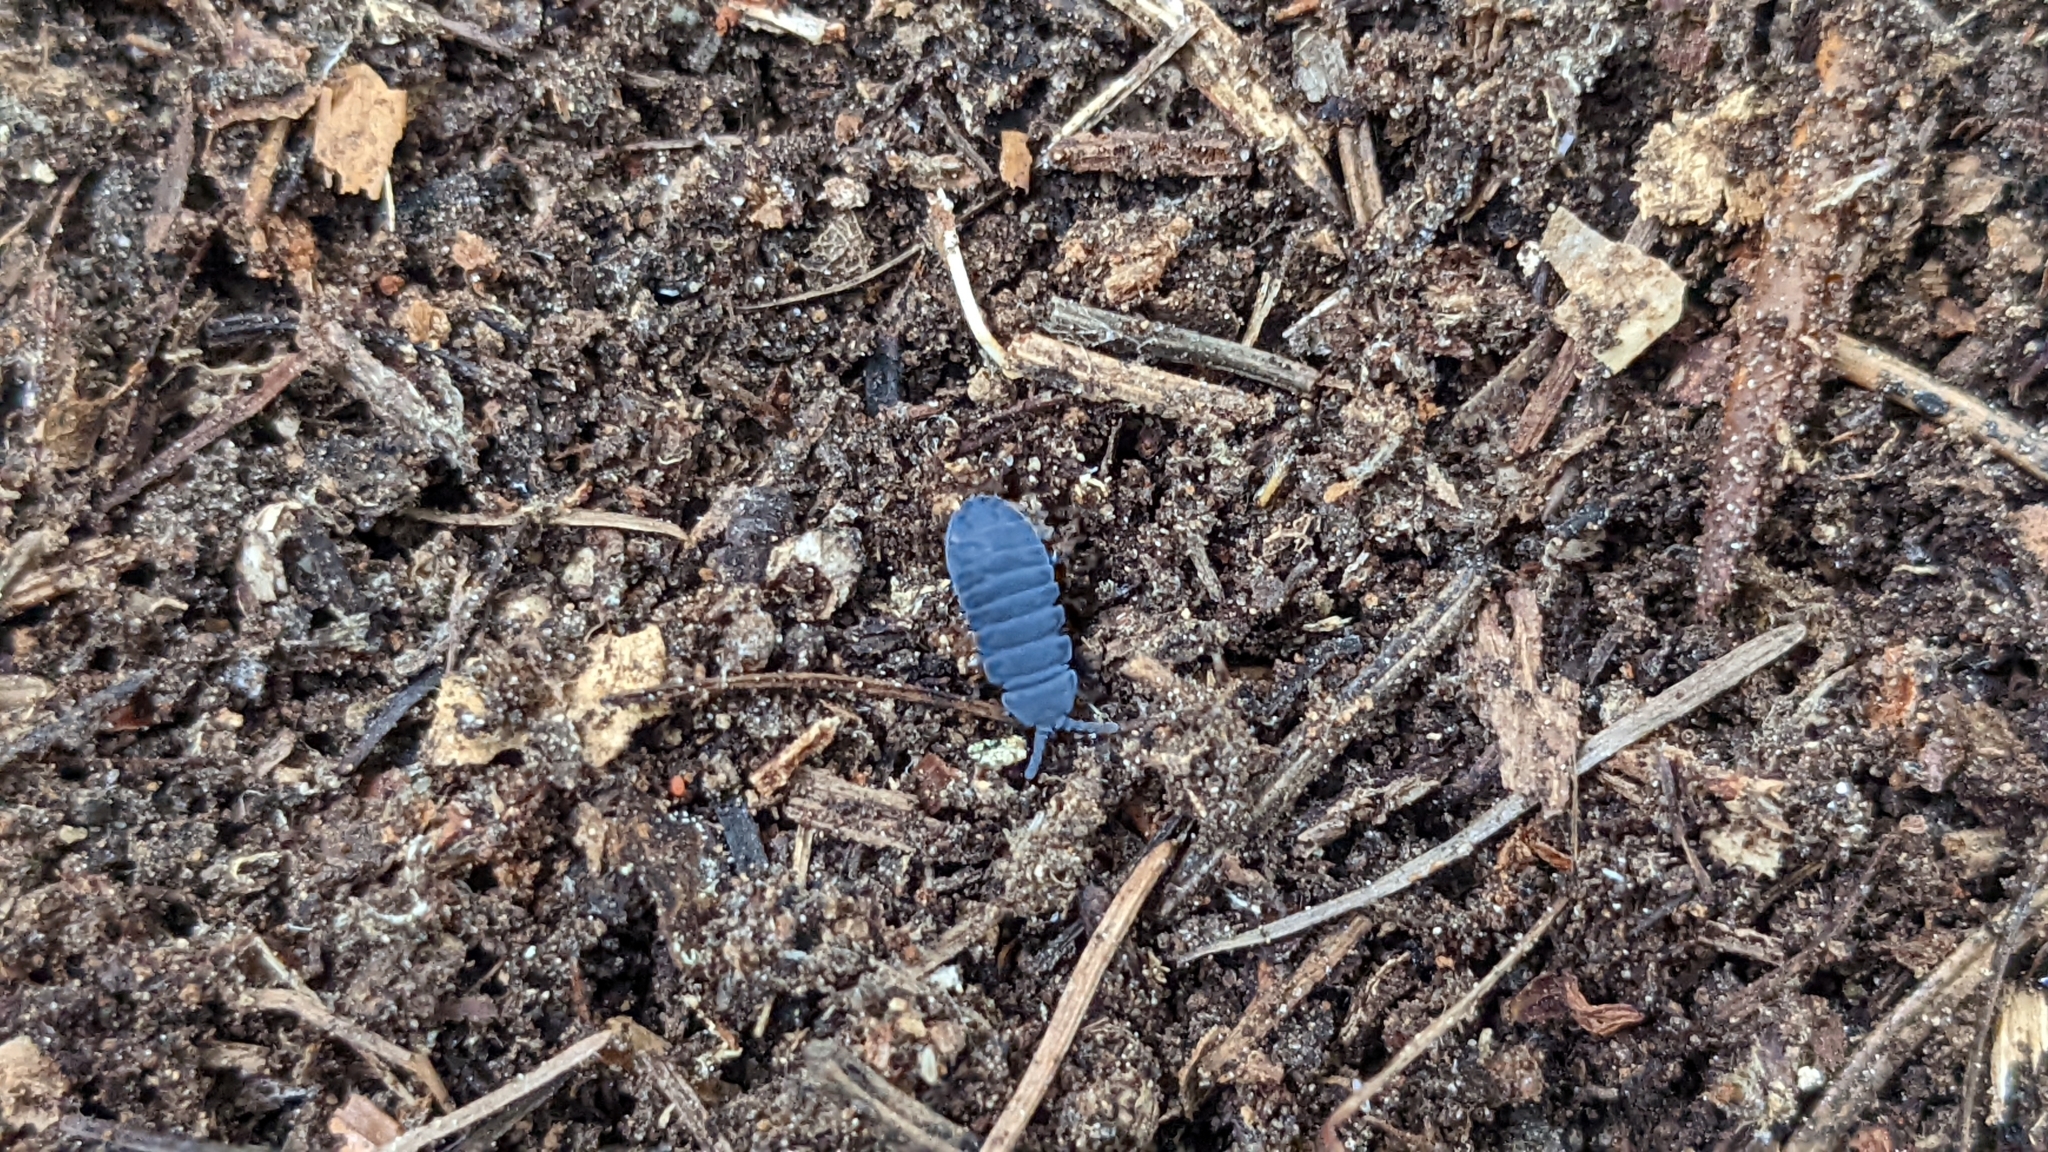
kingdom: Animalia
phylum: Arthropoda
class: Collembola
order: Poduromorpha
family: Onychiuridae
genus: Tetrodontophora
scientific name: Tetrodontophora bielanensis
